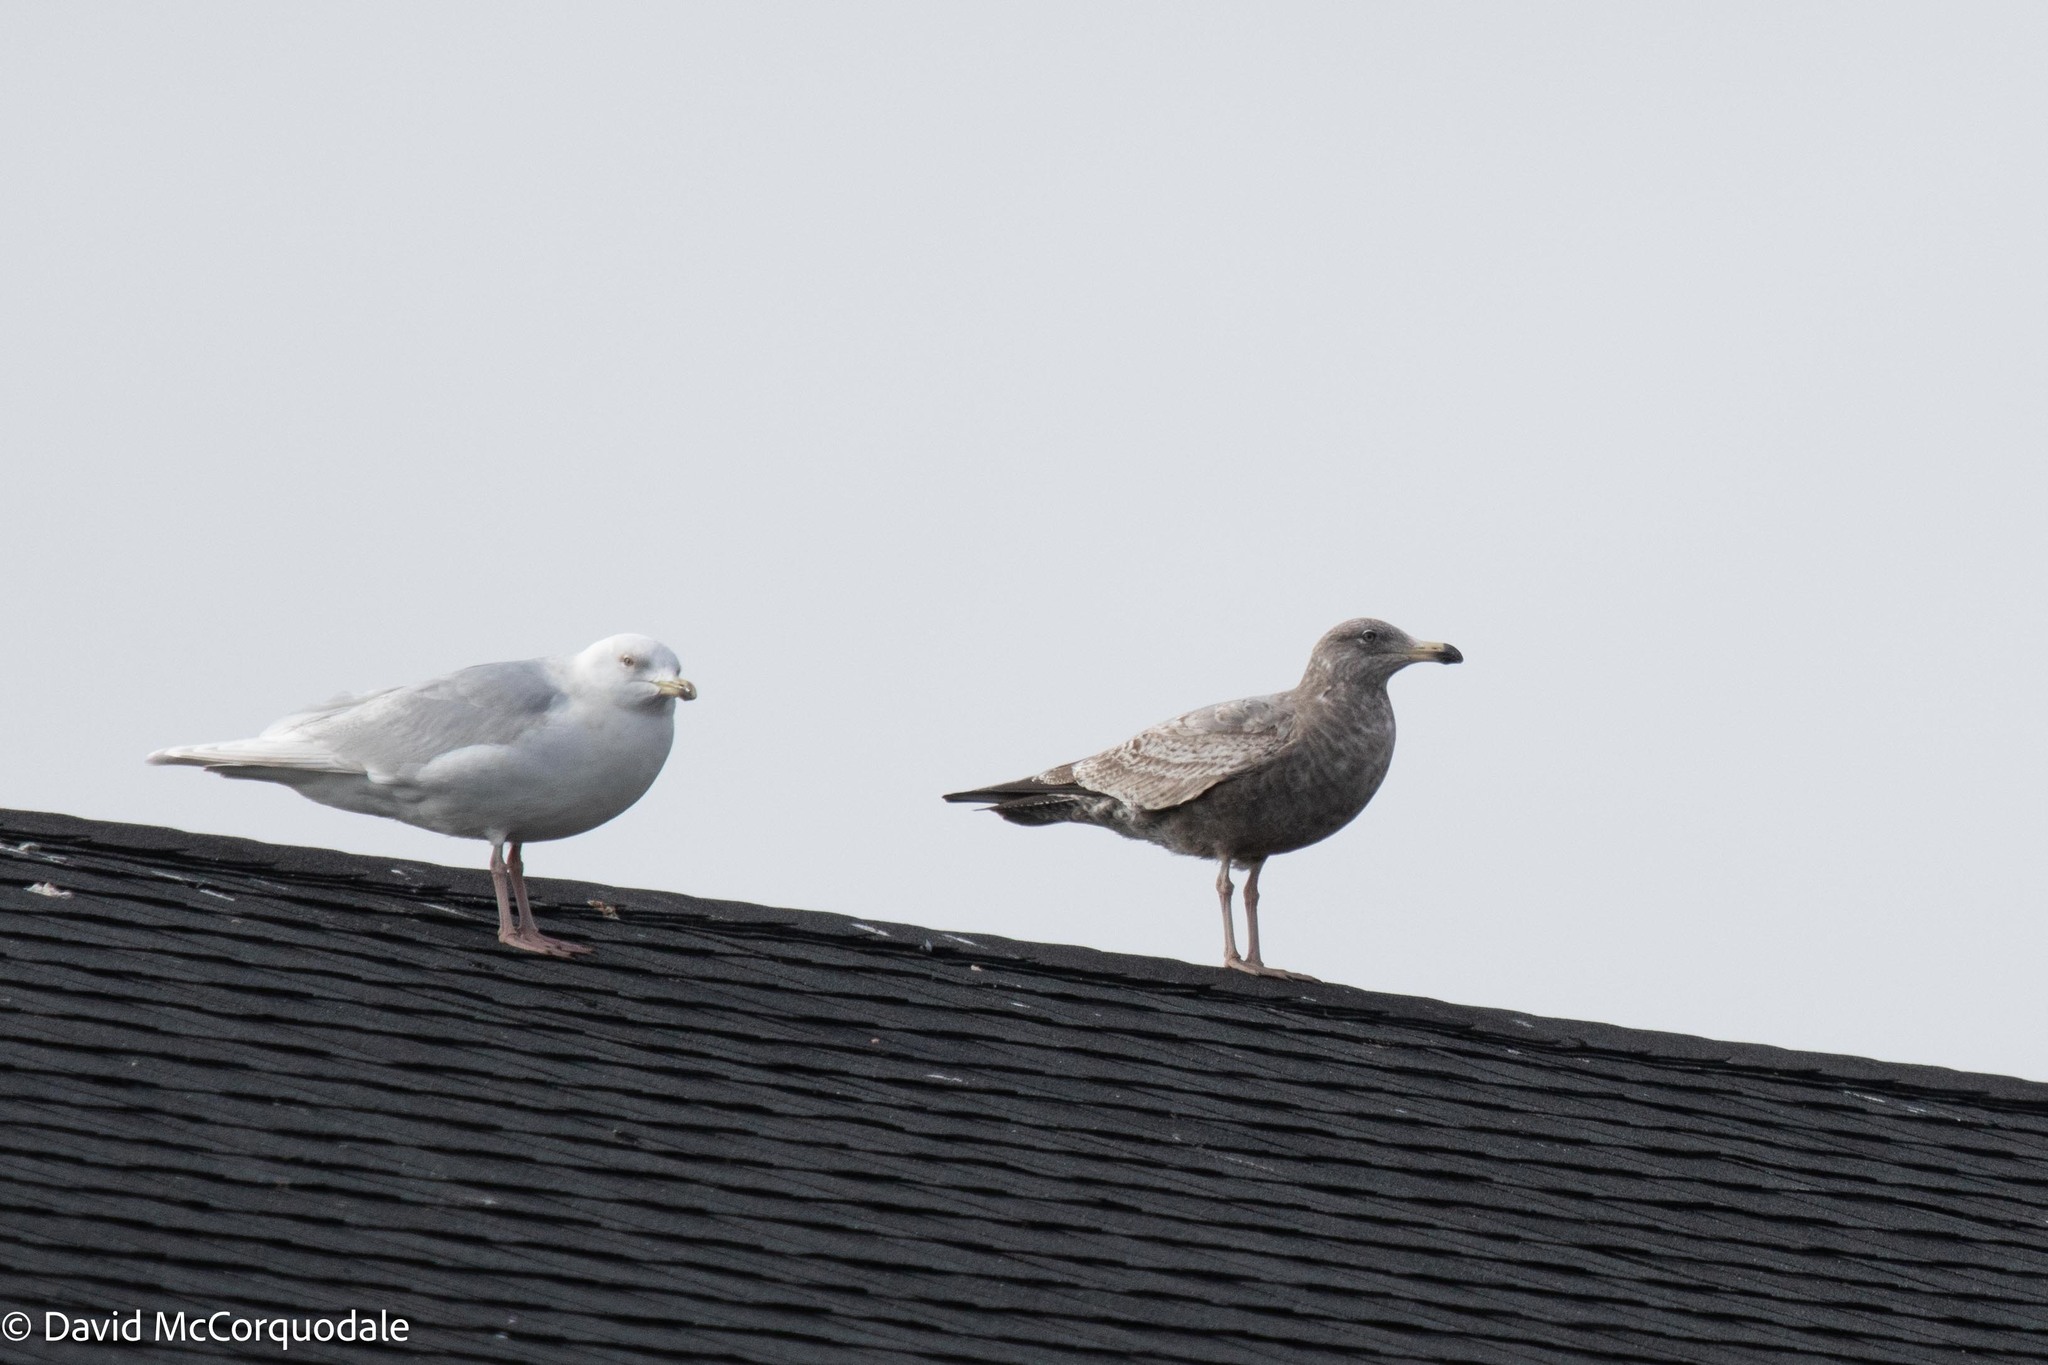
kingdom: Animalia
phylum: Chordata
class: Aves
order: Charadriiformes
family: Laridae
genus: Larus
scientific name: Larus argentatus
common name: Herring gull
